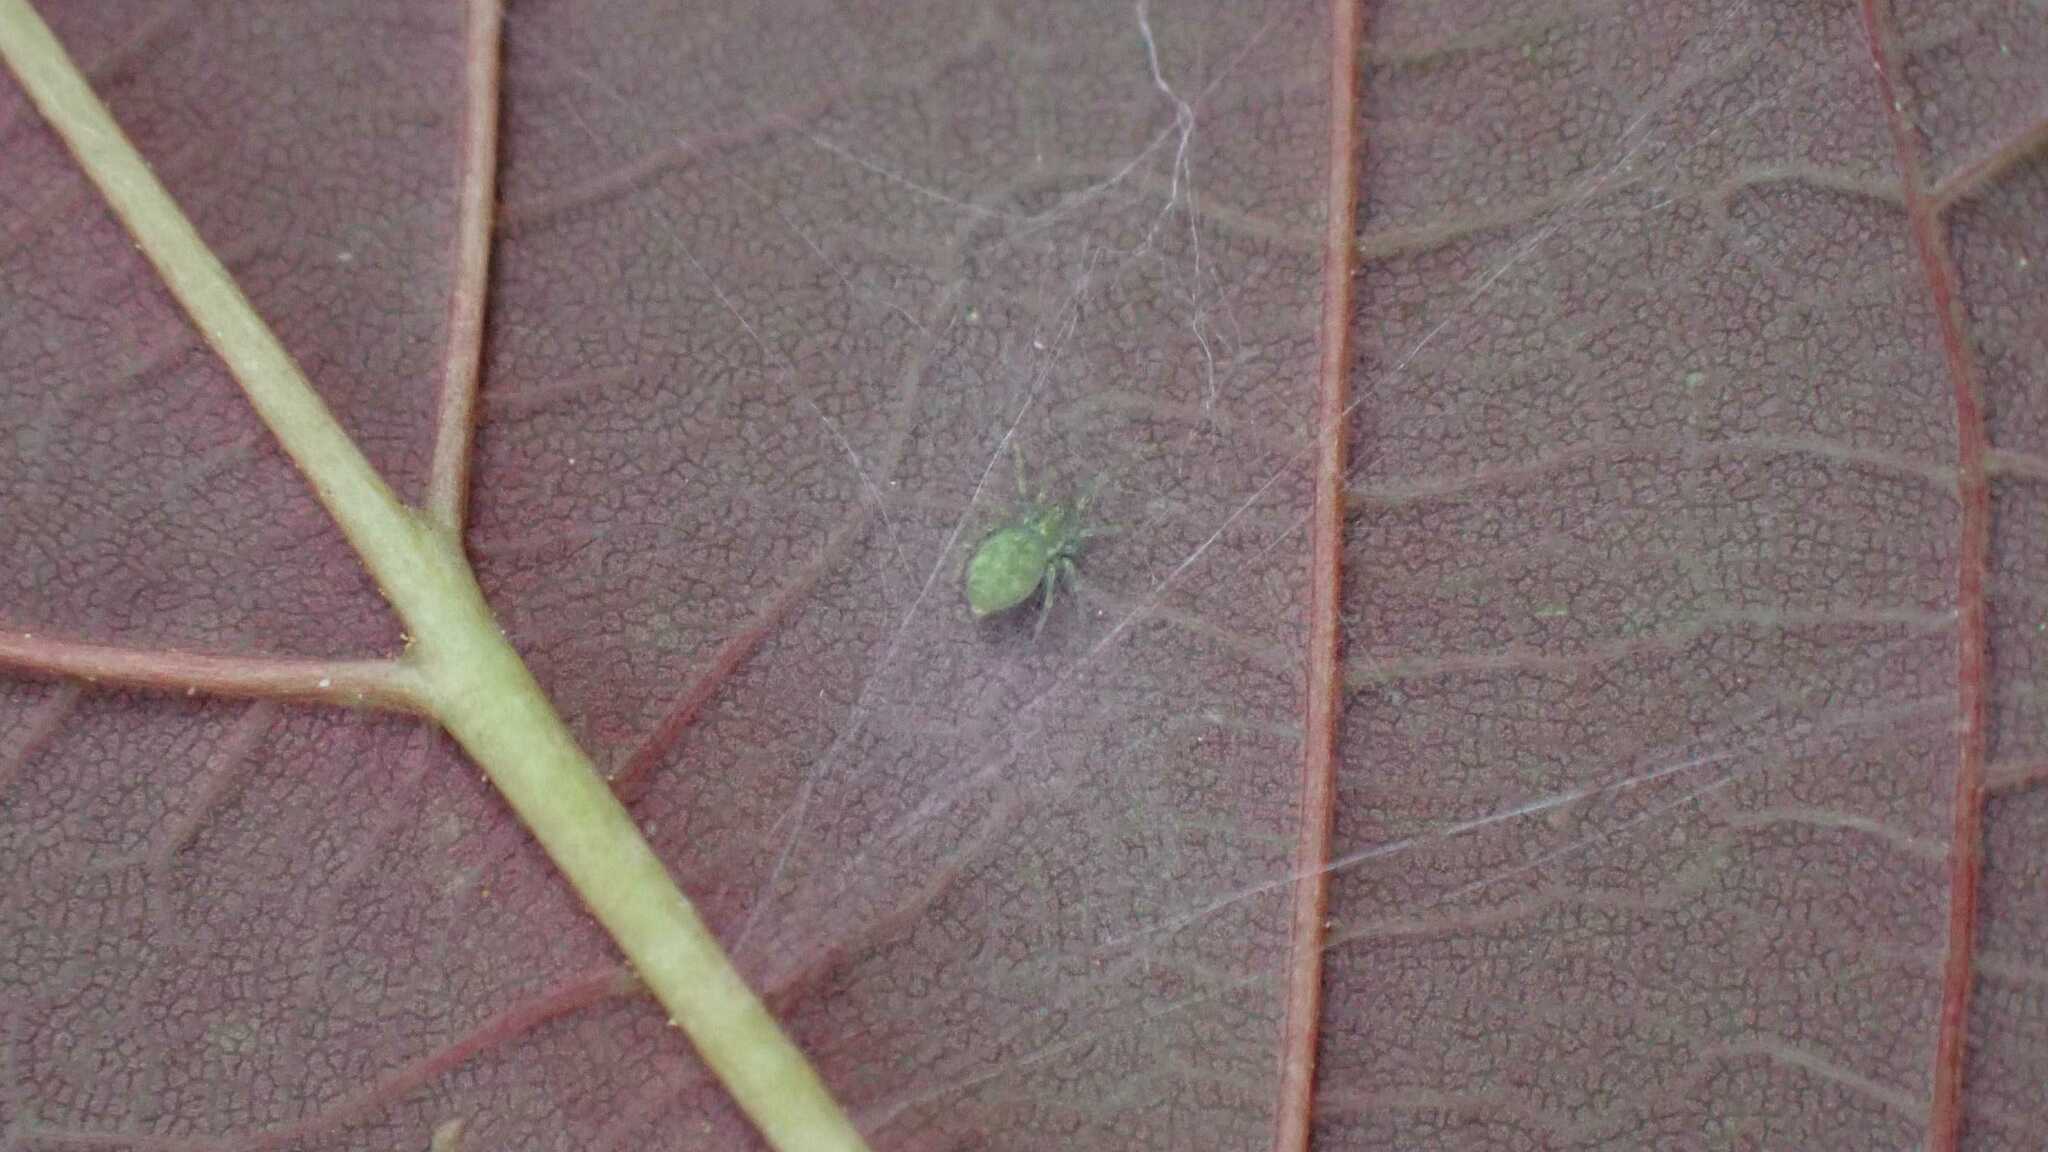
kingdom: Animalia
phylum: Arthropoda
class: Arachnida
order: Araneae
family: Dictynidae
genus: Nigma
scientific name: Nigma walckenaeri
